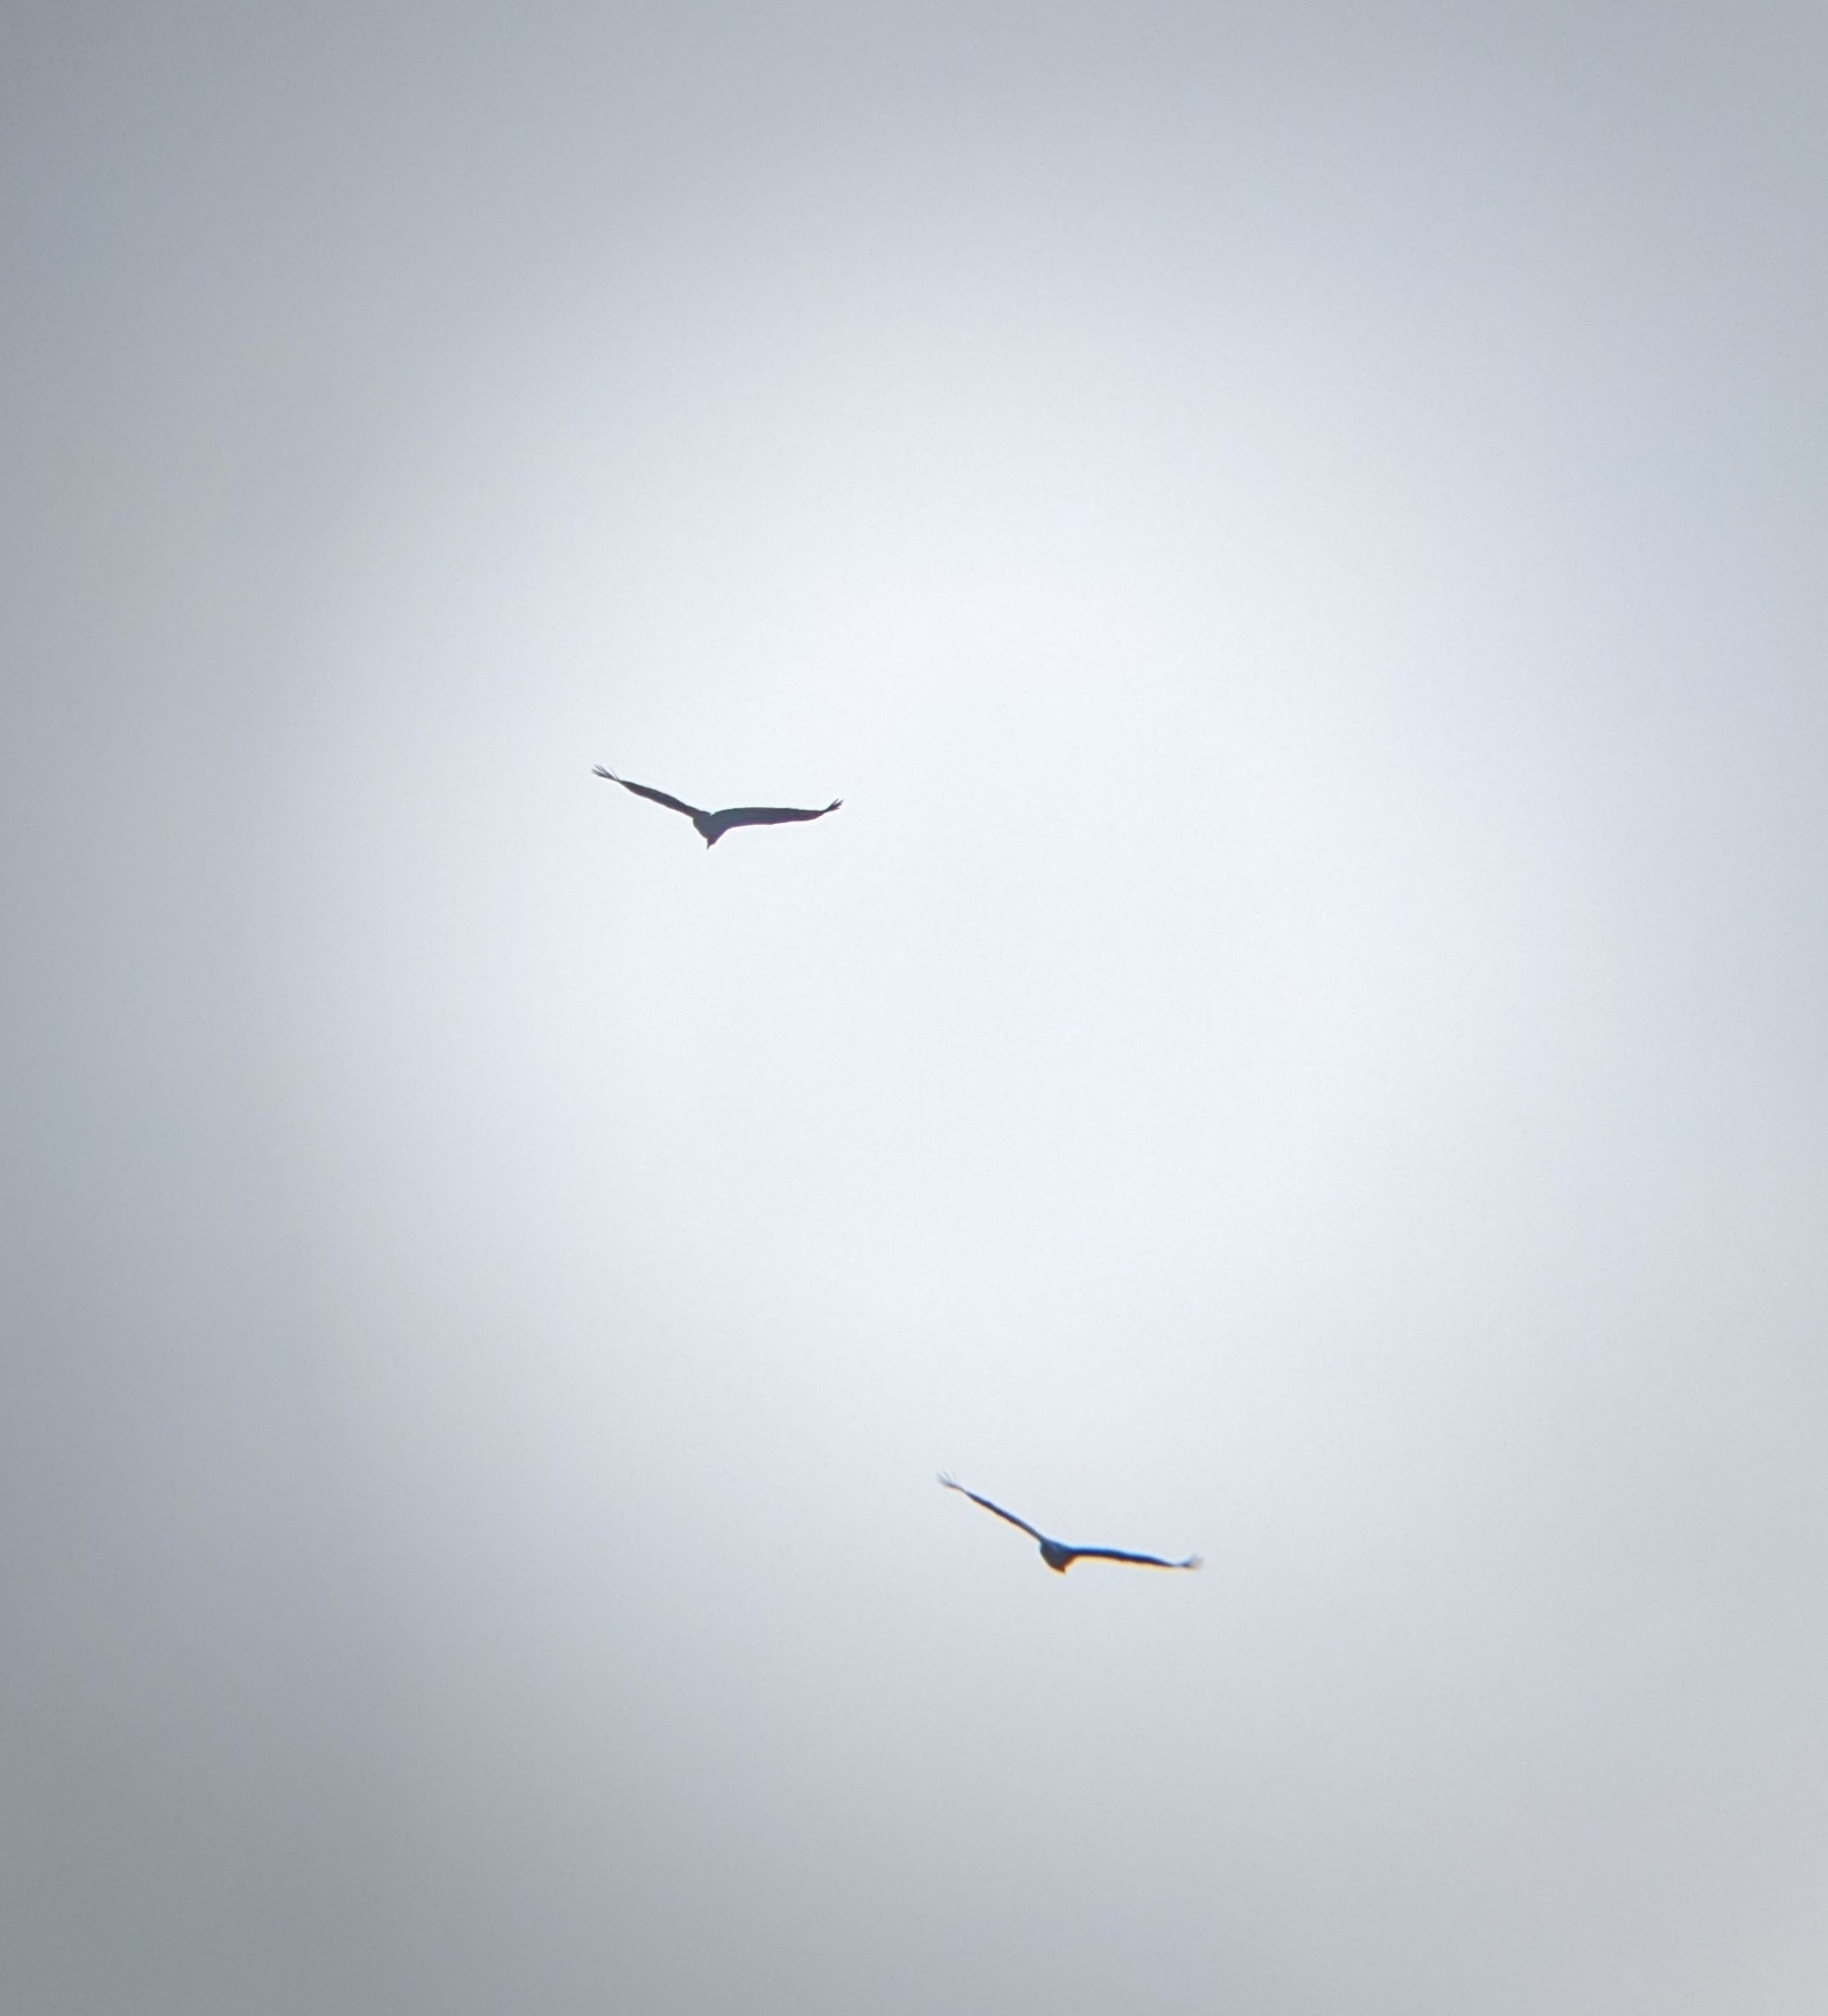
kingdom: Animalia
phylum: Chordata
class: Aves
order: Accipitriformes
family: Cathartidae
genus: Coragyps
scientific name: Coragyps atratus
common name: Black vulture
